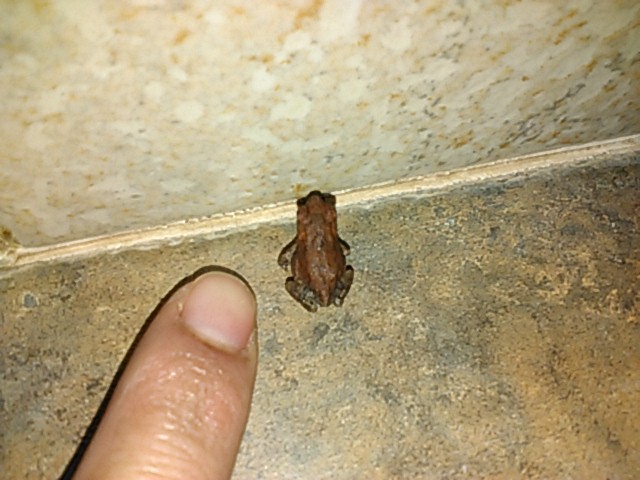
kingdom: Animalia
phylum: Chordata
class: Amphibia
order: Anura
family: Bufonidae
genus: Incilius
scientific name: Incilius nebulifer
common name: Gulf coast toad
